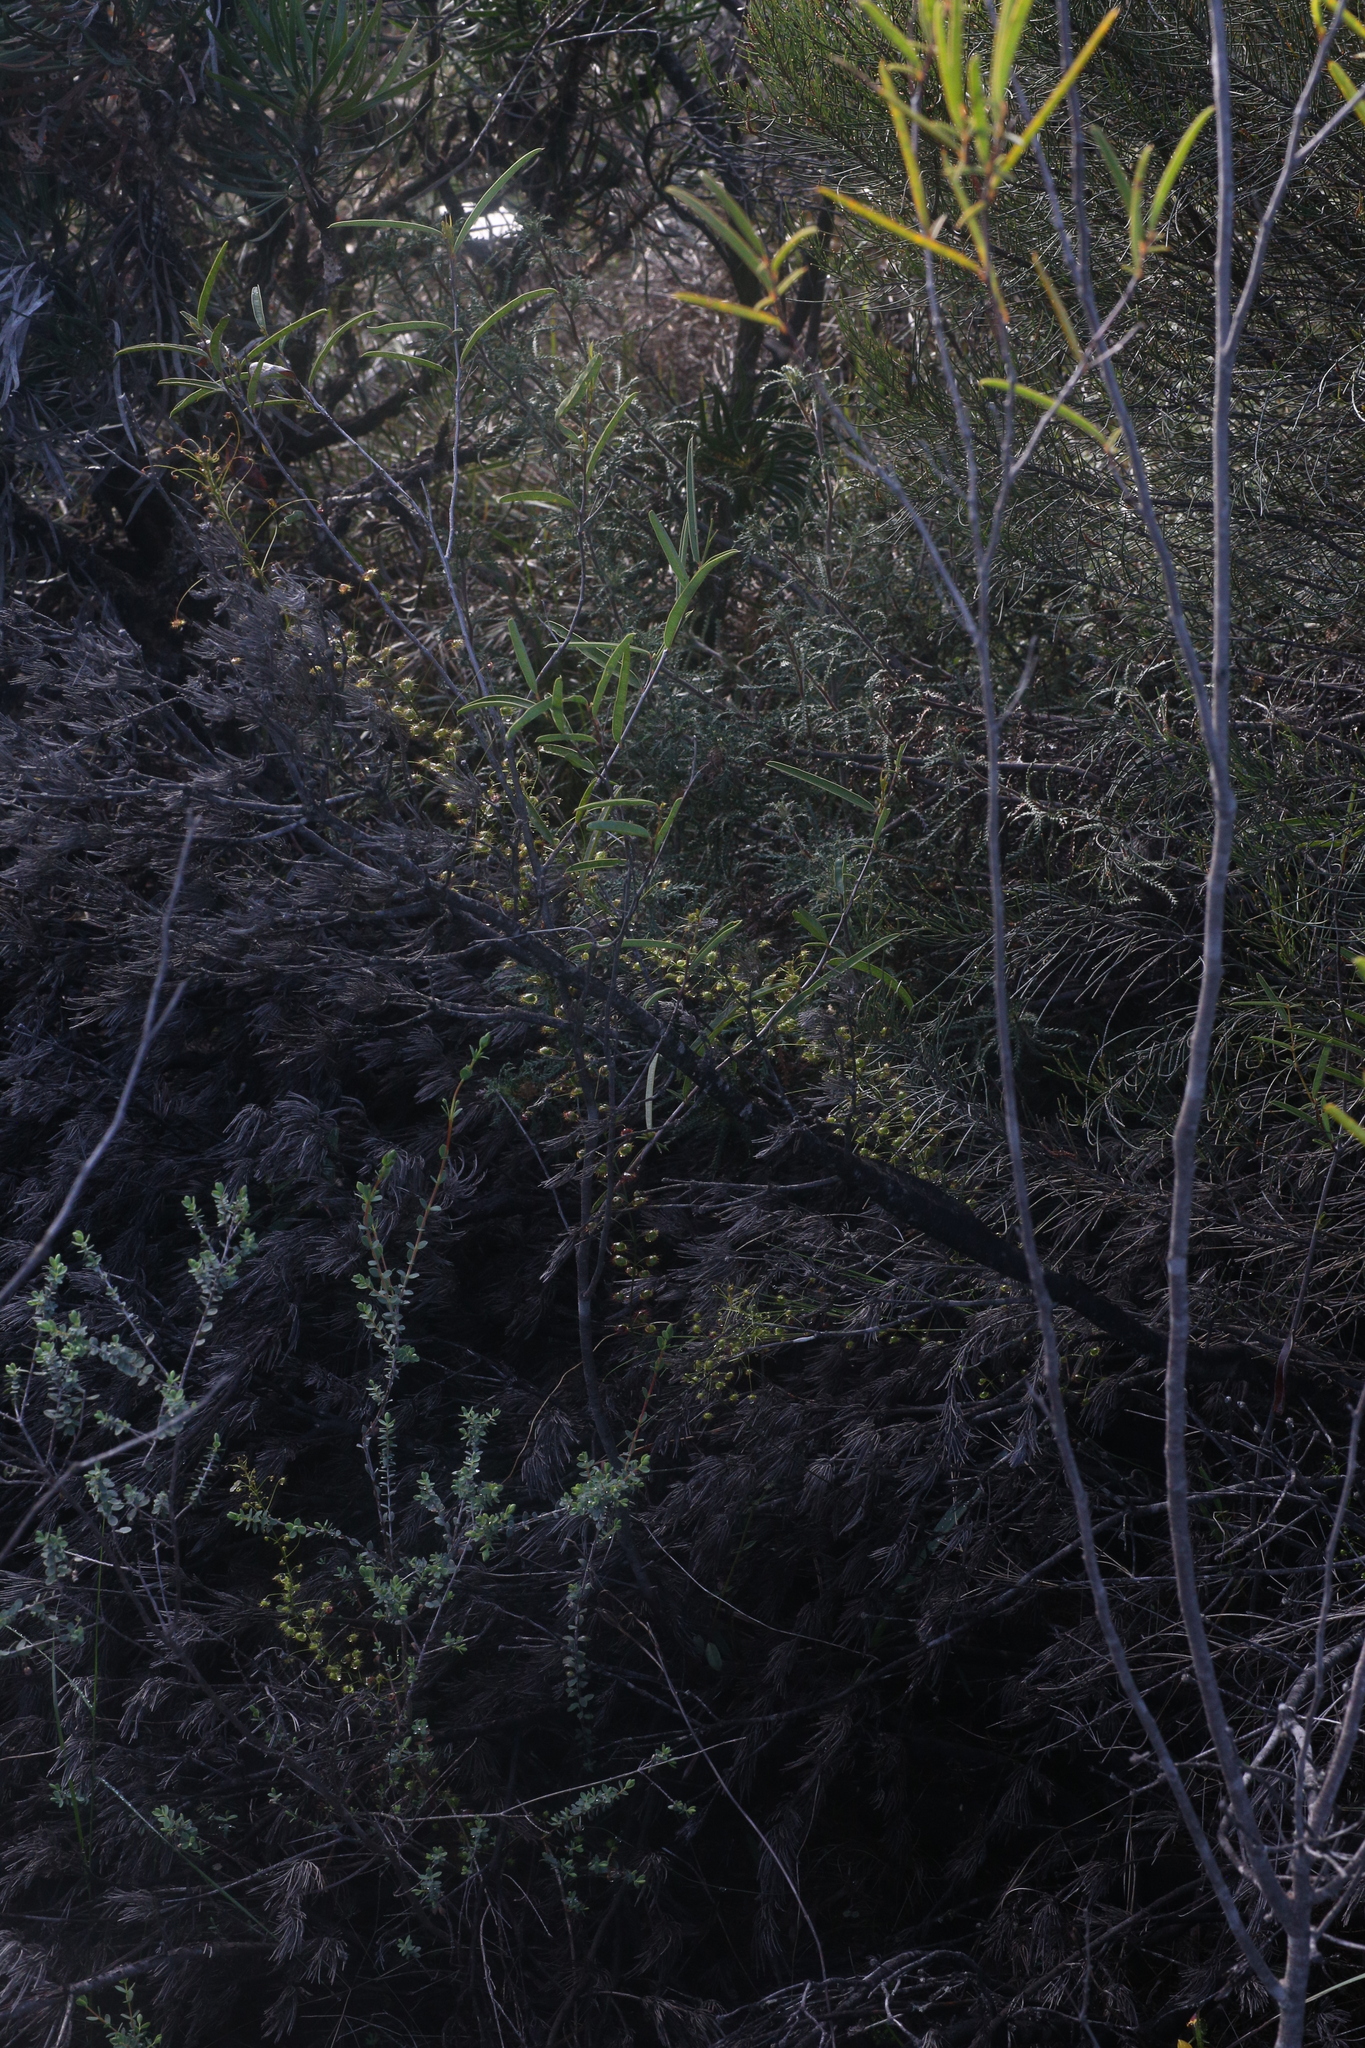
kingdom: Plantae
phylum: Tracheophyta
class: Magnoliopsida
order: Caryophyllales
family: Droseraceae
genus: Drosera
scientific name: Drosera macrantha
